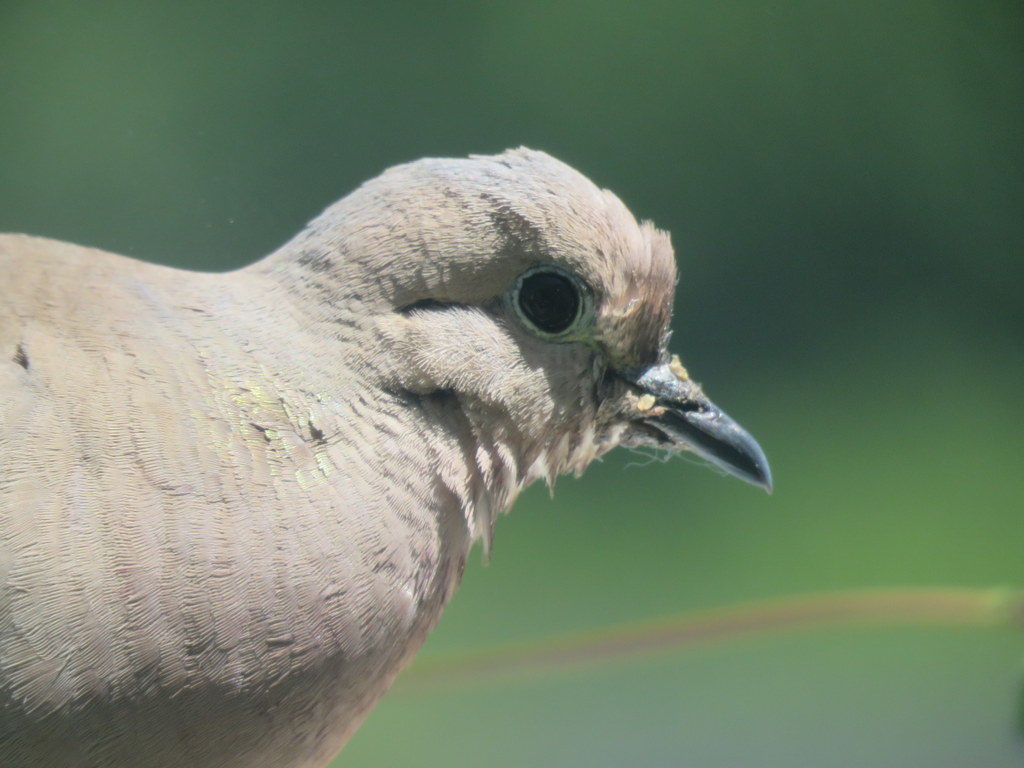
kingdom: Animalia
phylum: Chordata
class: Aves
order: Columbiformes
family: Columbidae
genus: Zenaida
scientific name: Zenaida auriculata
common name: Eared dove
